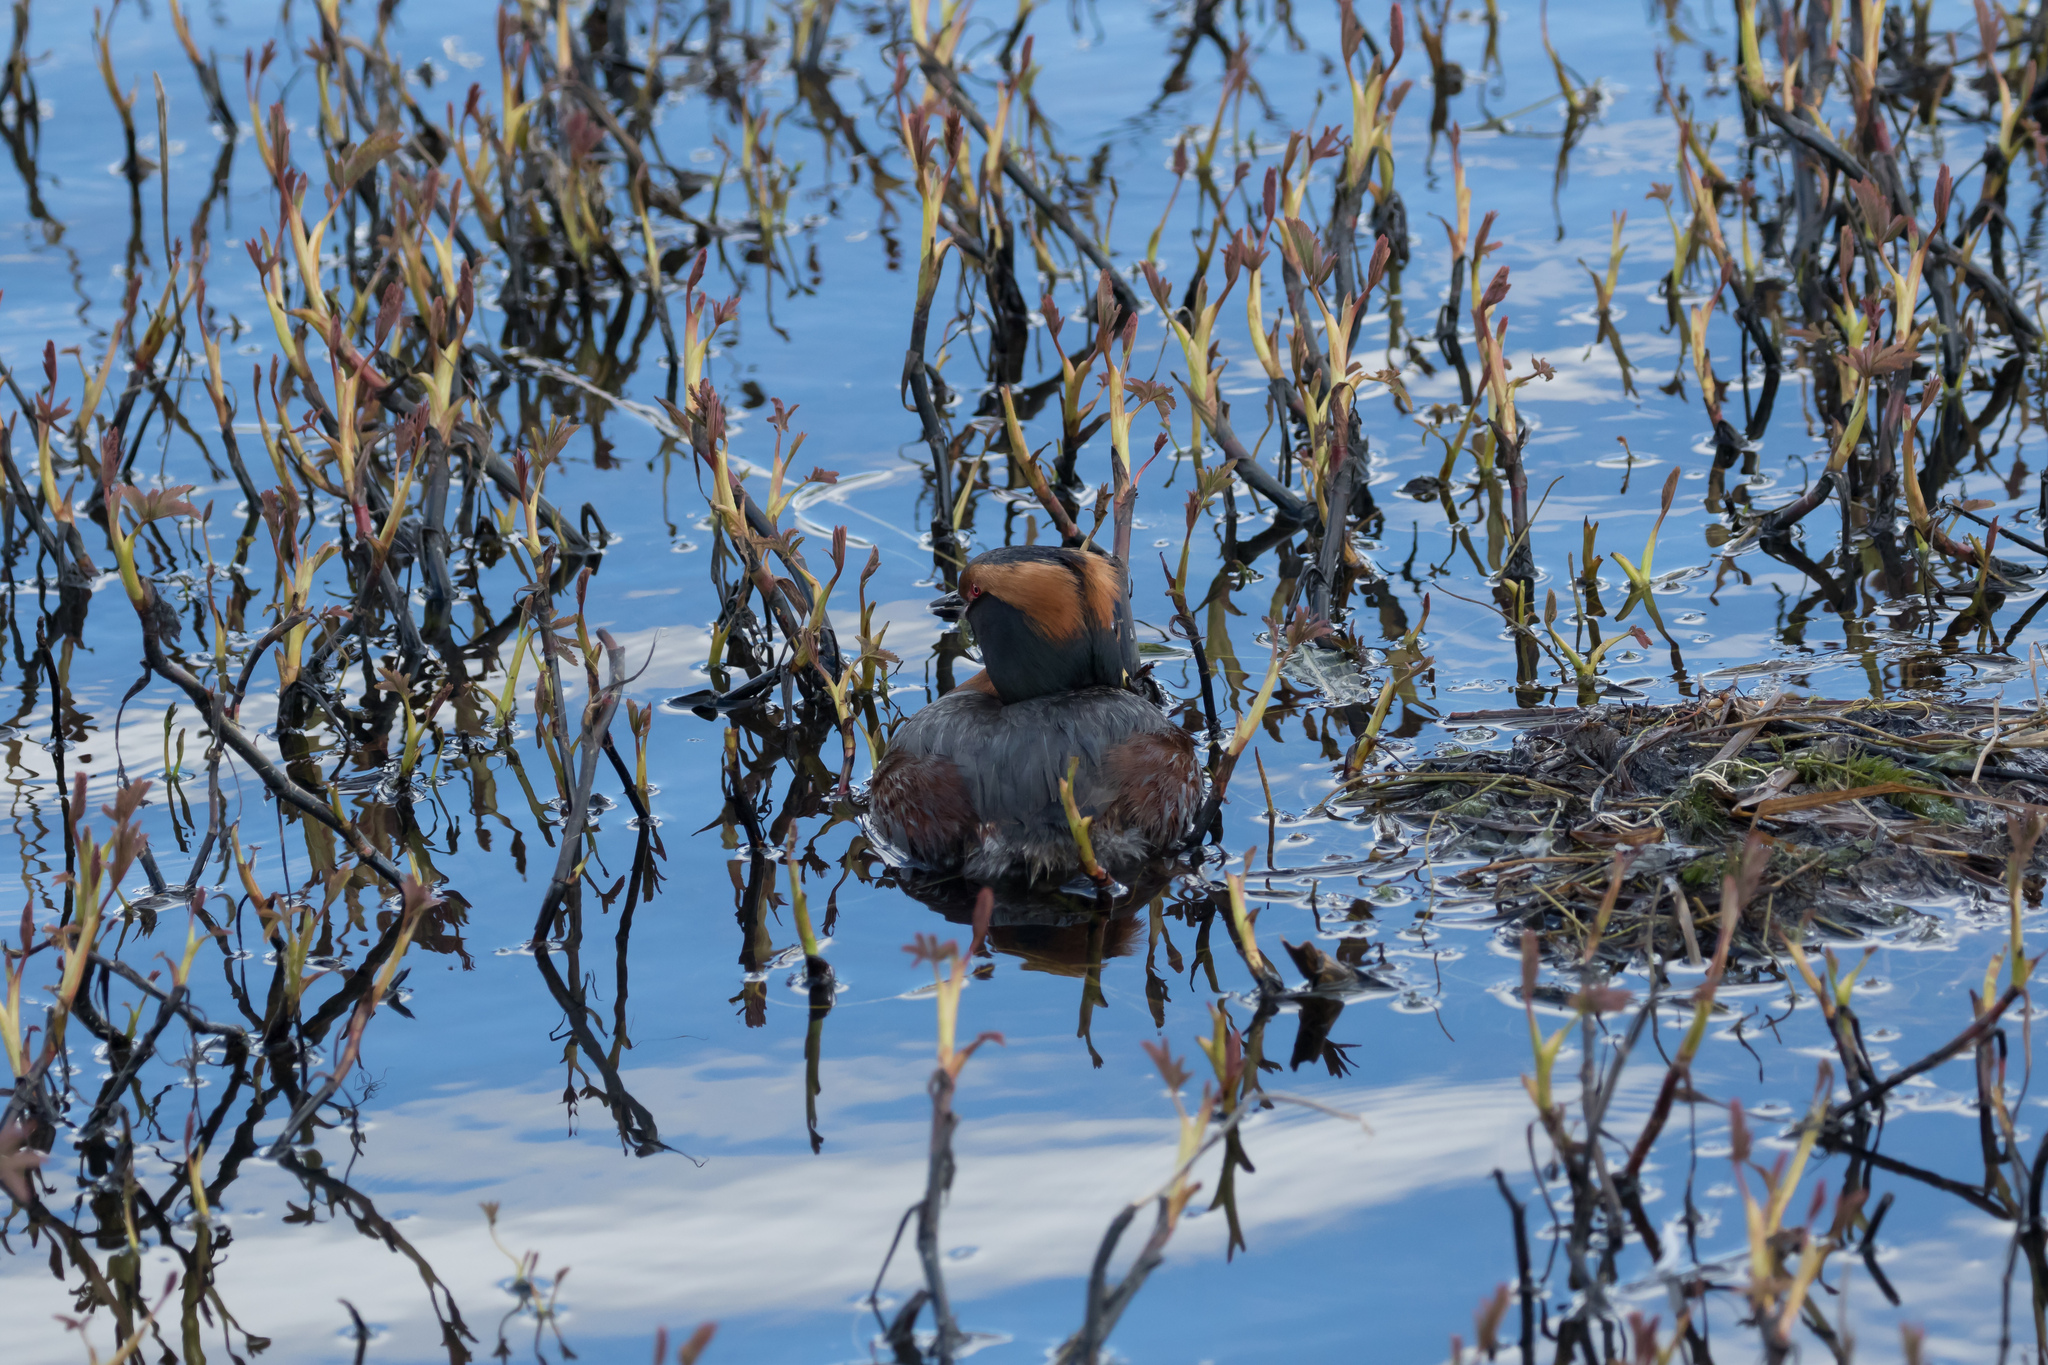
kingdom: Animalia
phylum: Chordata
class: Aves
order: Podicipediformes
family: Podicipedidae
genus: Podiceps
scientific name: Podiceps auritus
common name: Horned grebe
